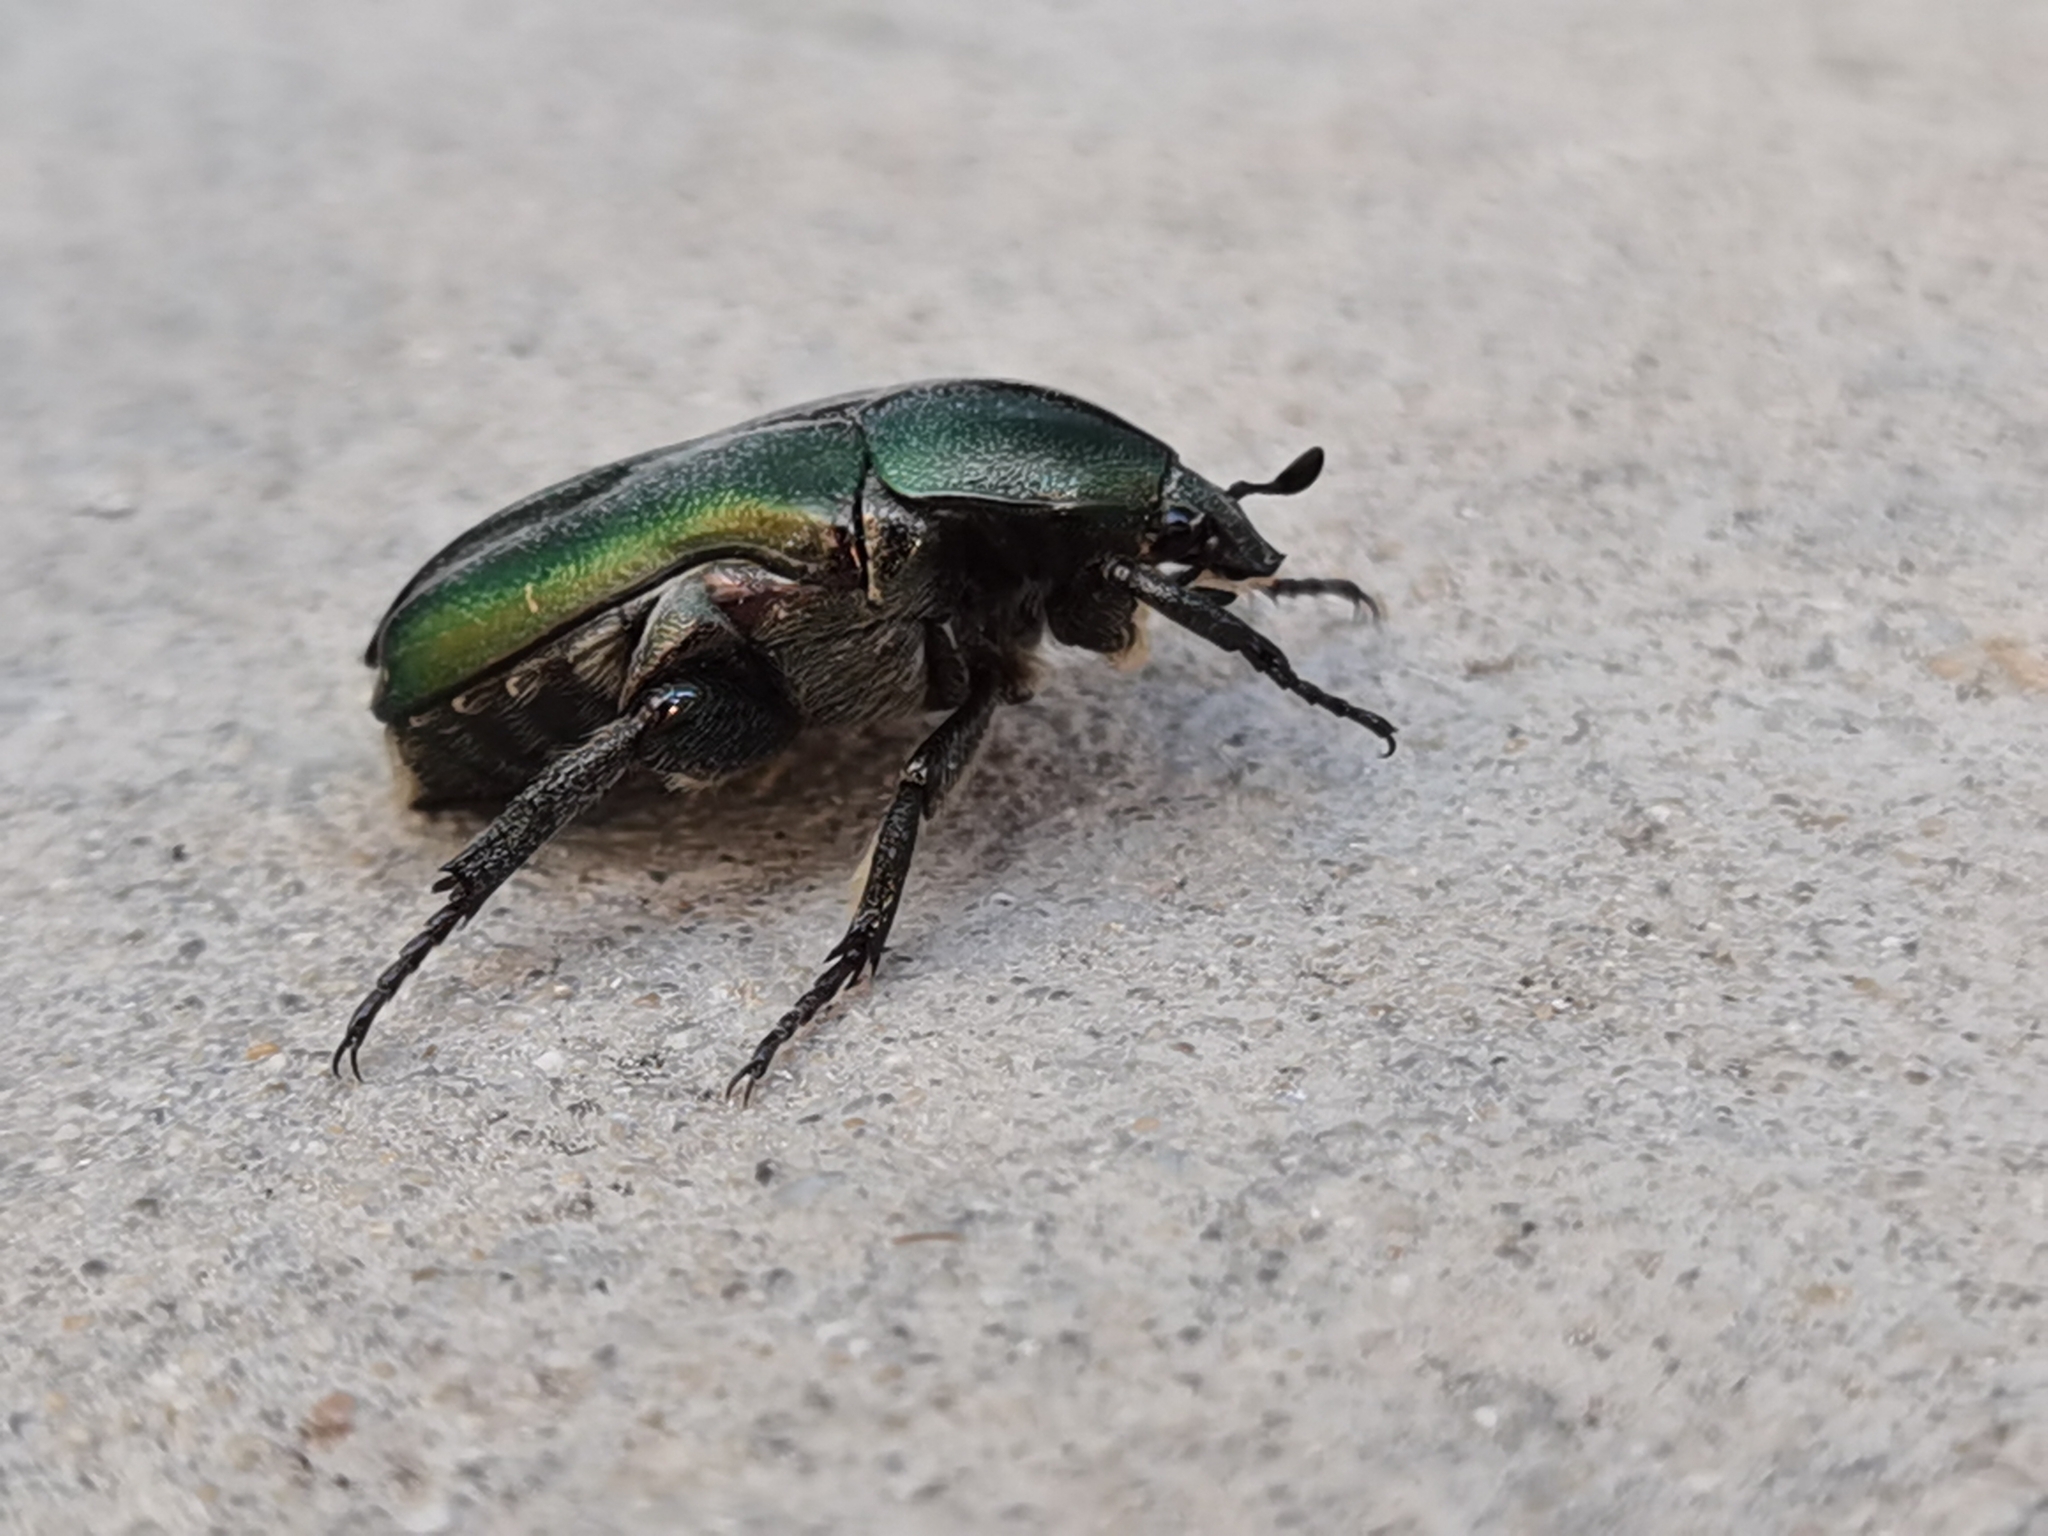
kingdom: Animalia
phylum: Arthropoda
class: Insecta
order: Coleoptera
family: Scarabaeidae
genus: Protaetia
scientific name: Protaetia cuprea
